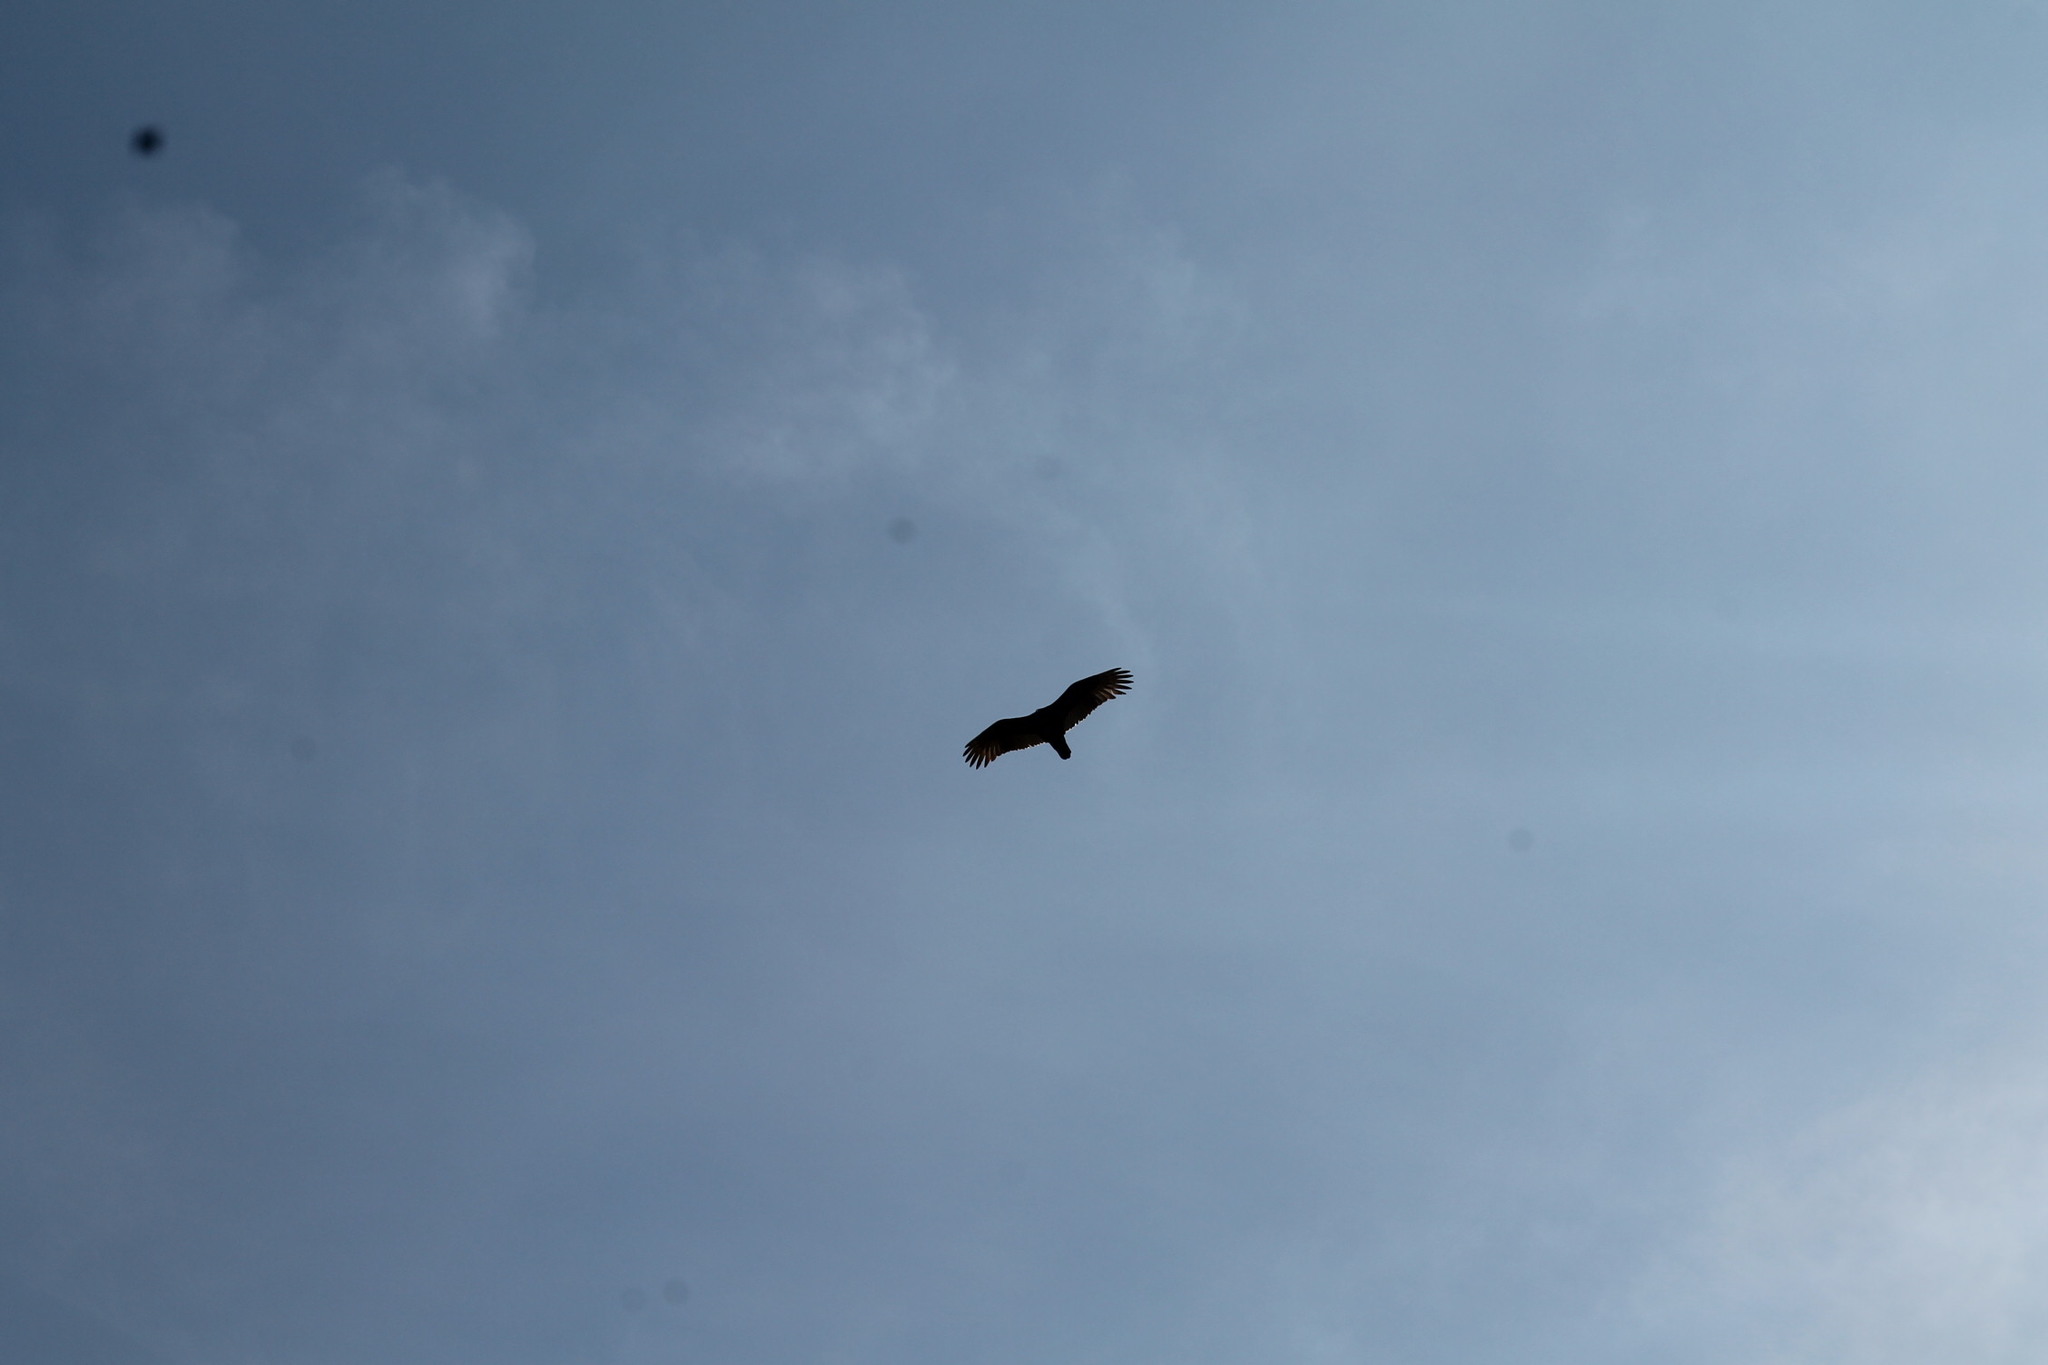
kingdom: Animalia
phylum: Chordata
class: Aves
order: Accipitriformes
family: Cathartidae
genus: Cathartes
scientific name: Cathartes aura
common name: Turkey vulture
